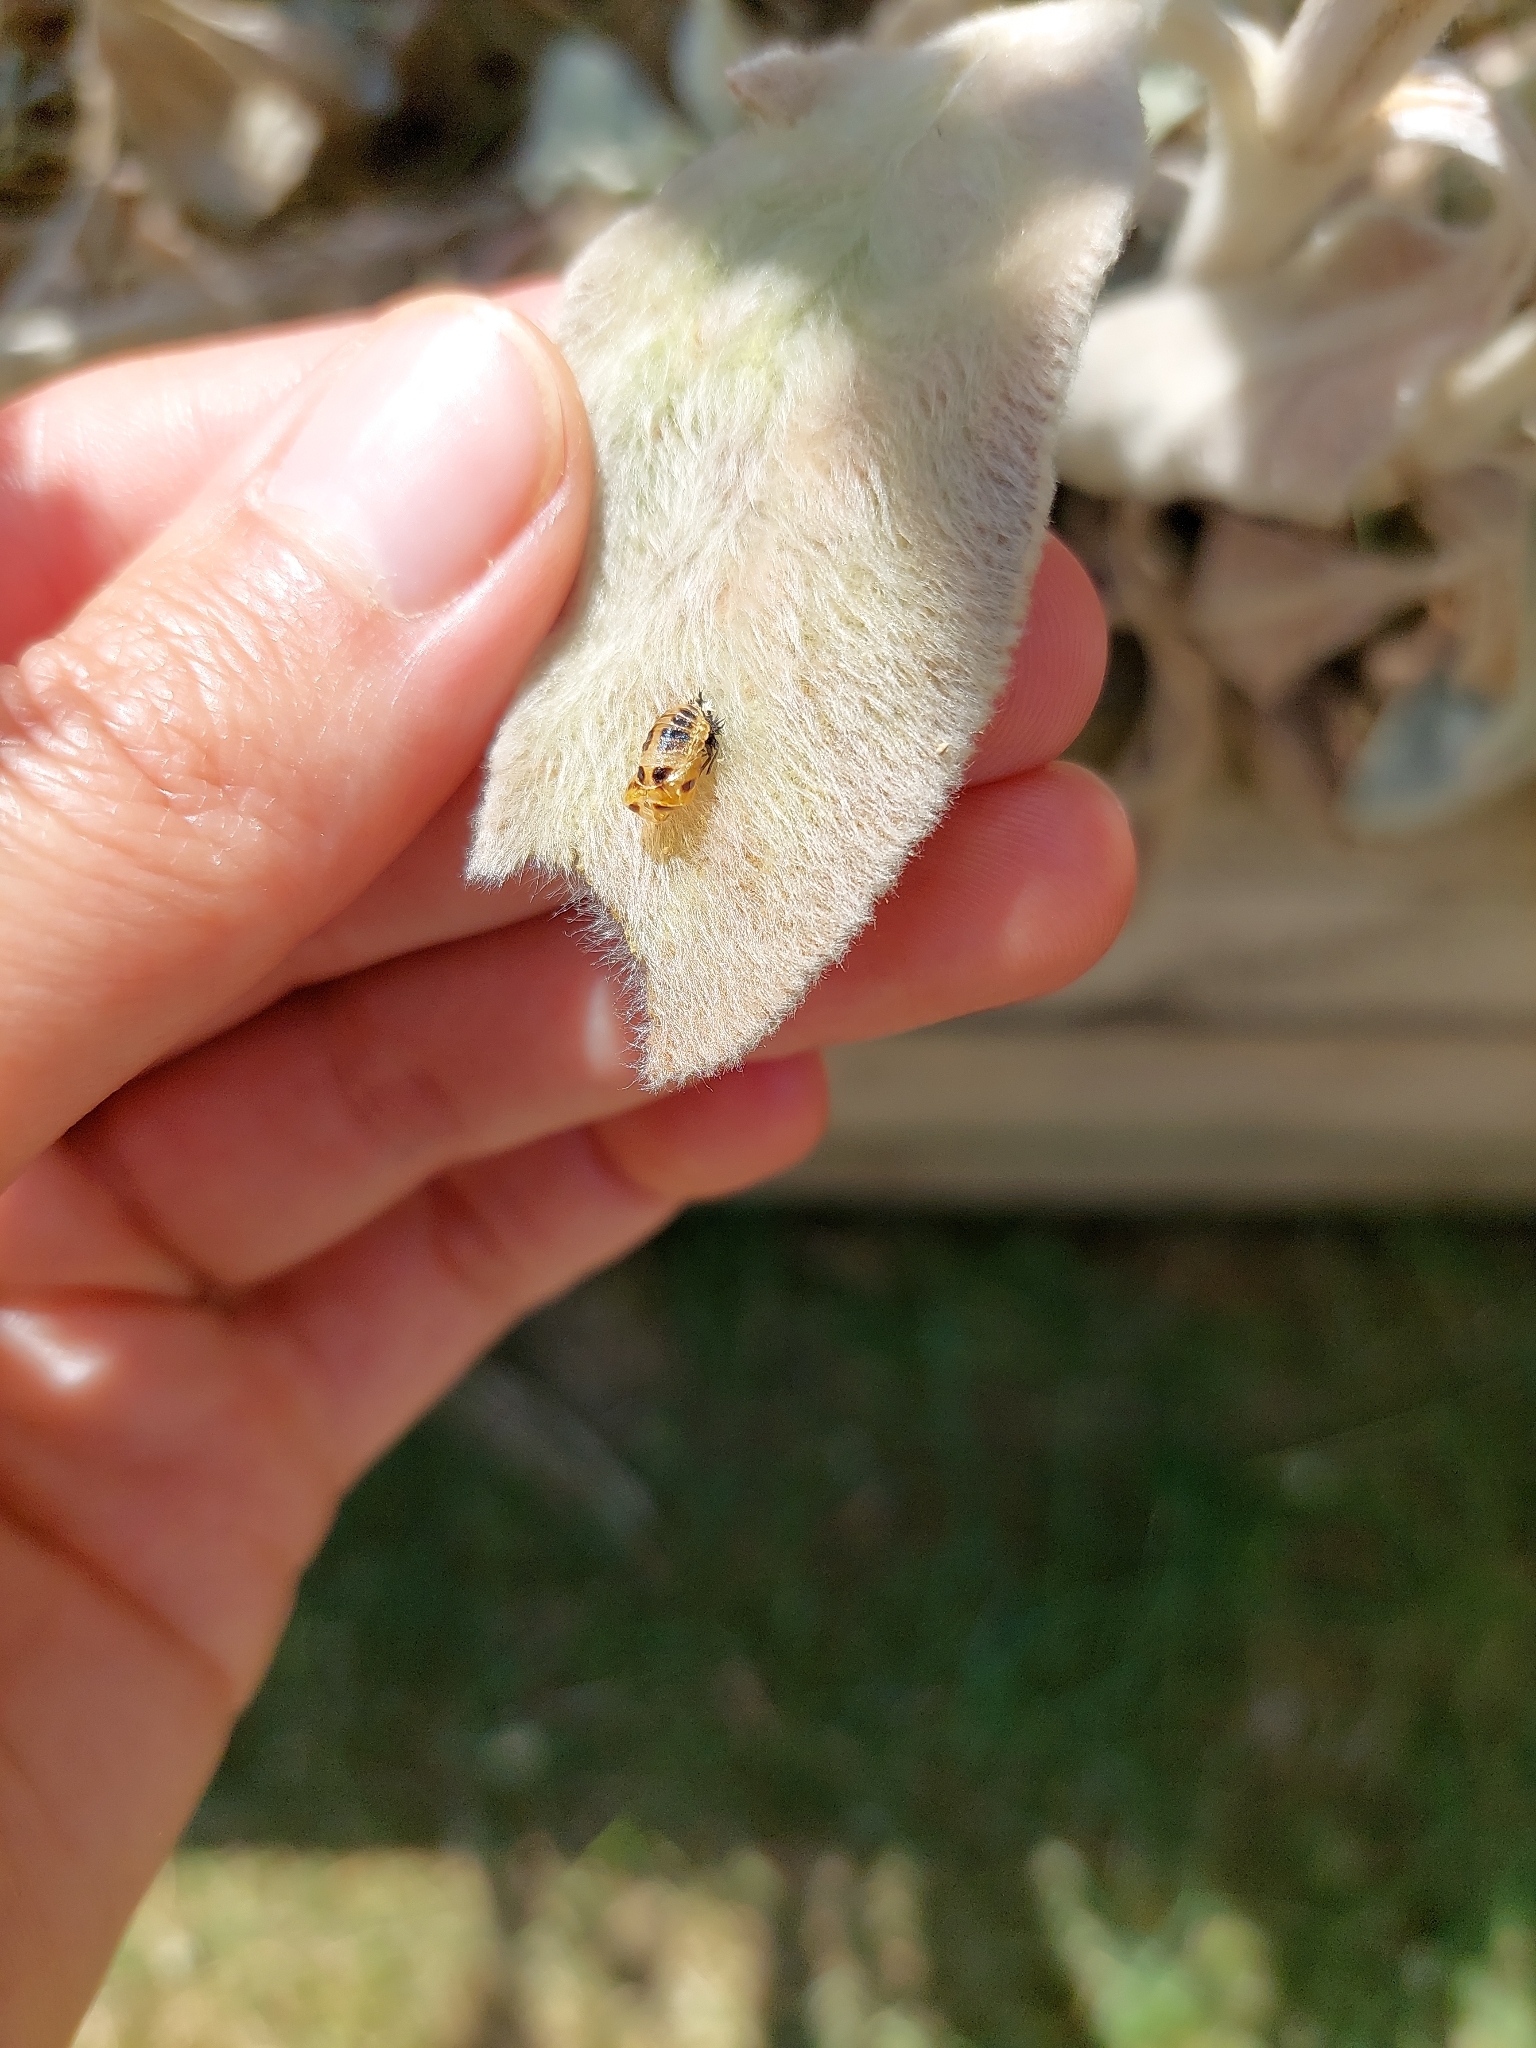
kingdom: Animalia
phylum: Arthropoda
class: Insecta
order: Coleoptera
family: Coccinellidae
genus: Harmonia
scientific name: Harmonia axyridis
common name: Harlequin ladybird
